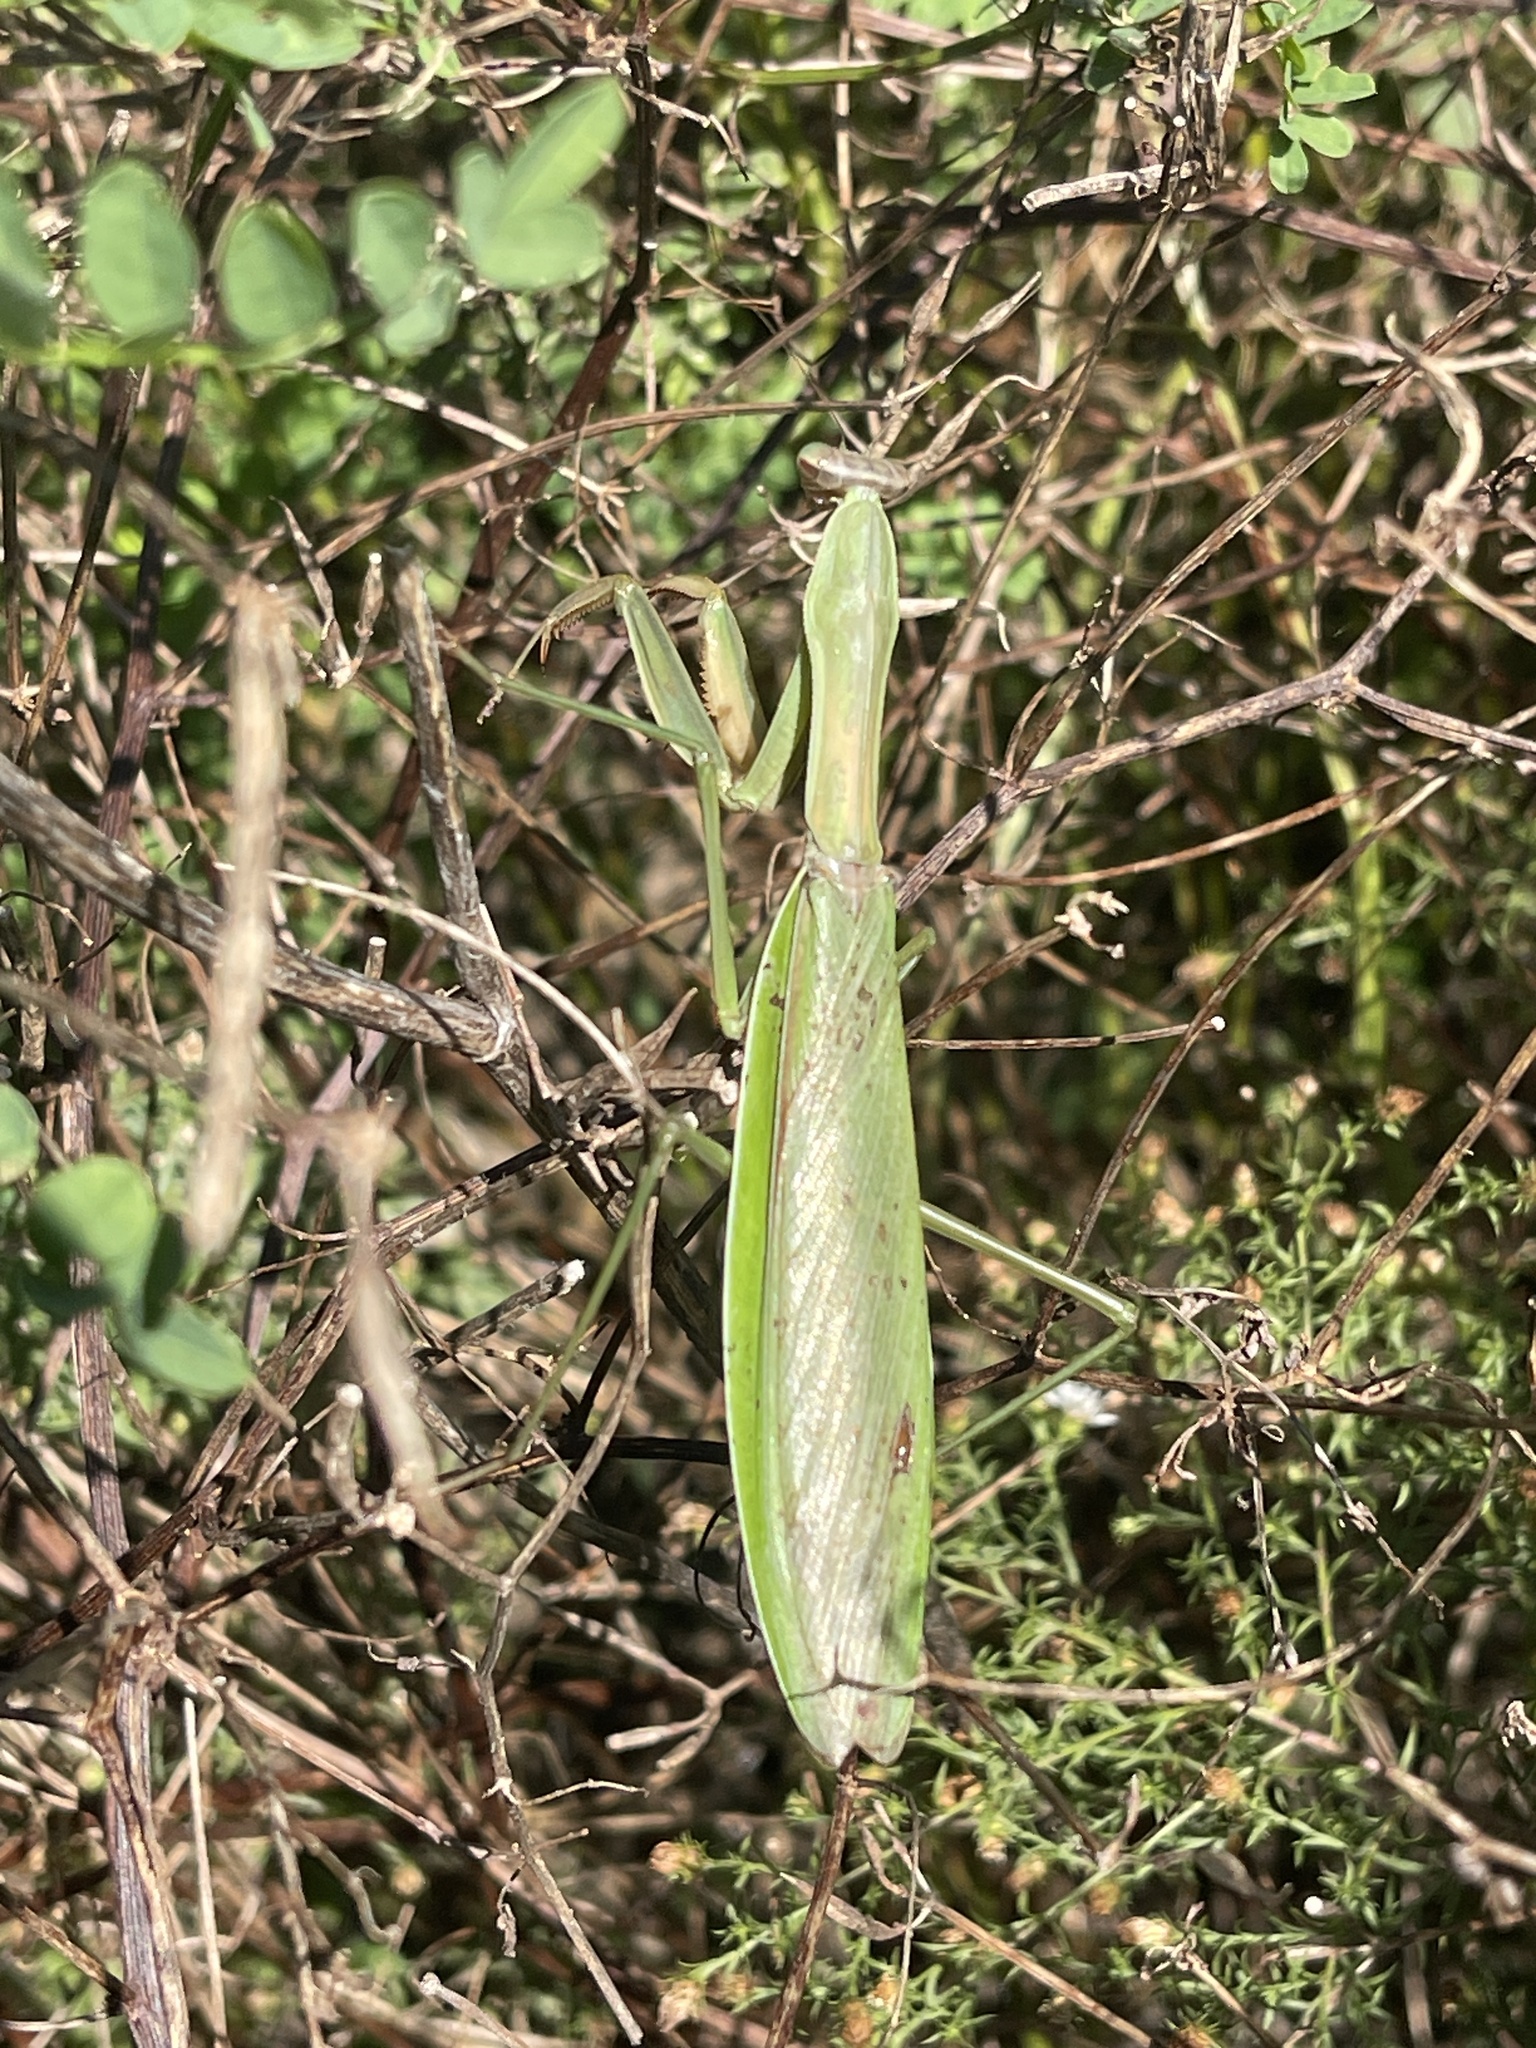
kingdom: Animalia
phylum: Arthropoda
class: Insecta
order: Mantodea
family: Mantidae
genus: Tenodera
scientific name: Tenodera sinensis
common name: Chinese mantis
